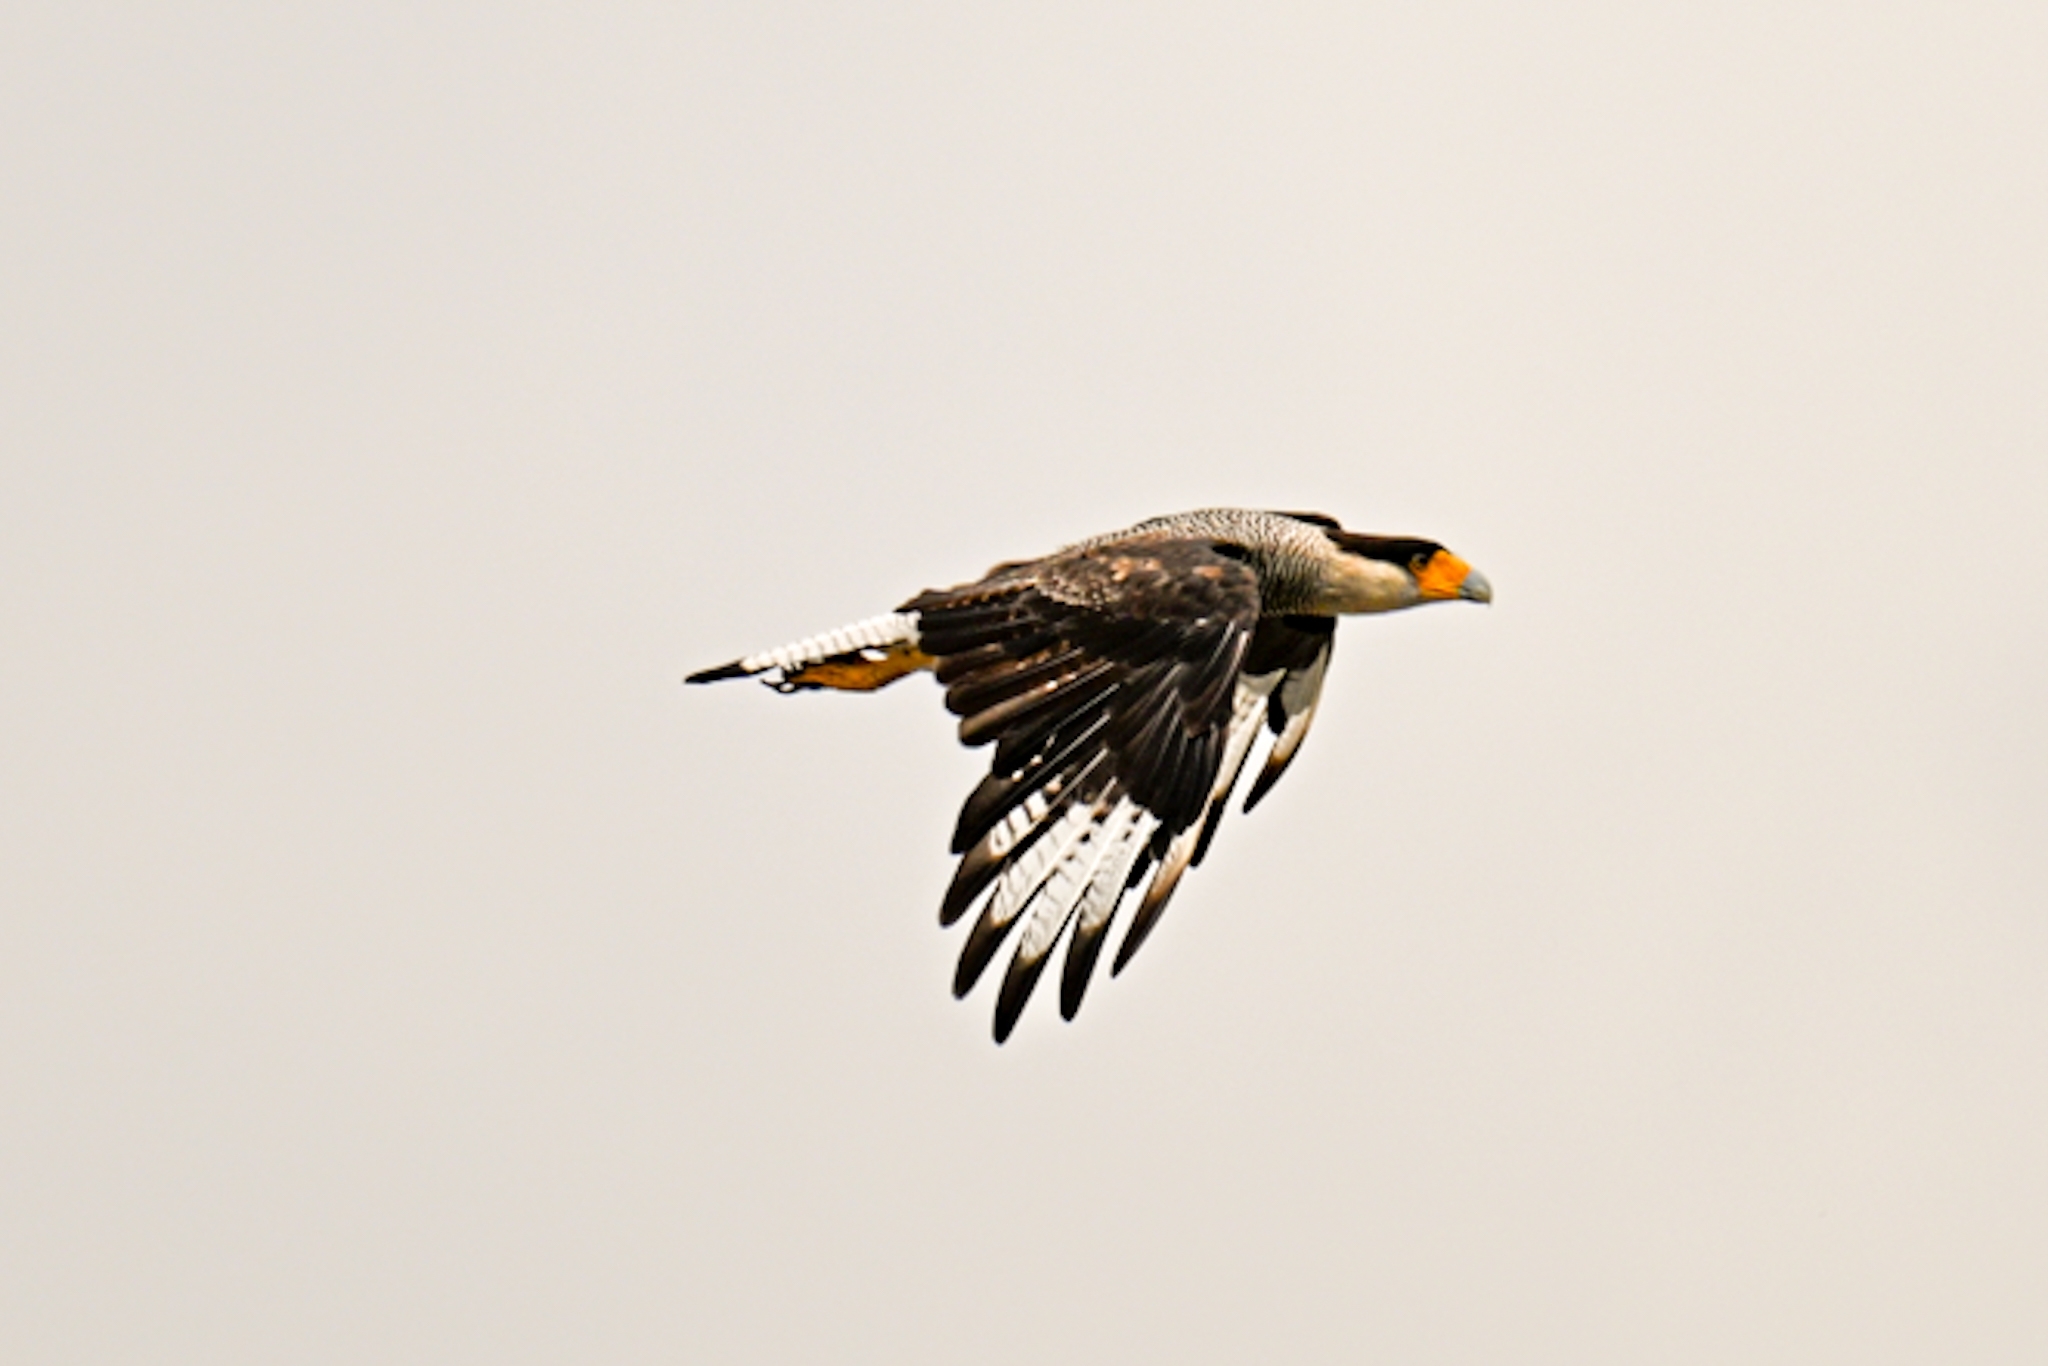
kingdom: Animalia
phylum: Chordata
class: Aves
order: Falconiformes
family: Falconidae
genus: Caracara
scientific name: Caracara plancus
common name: Southern caracara
